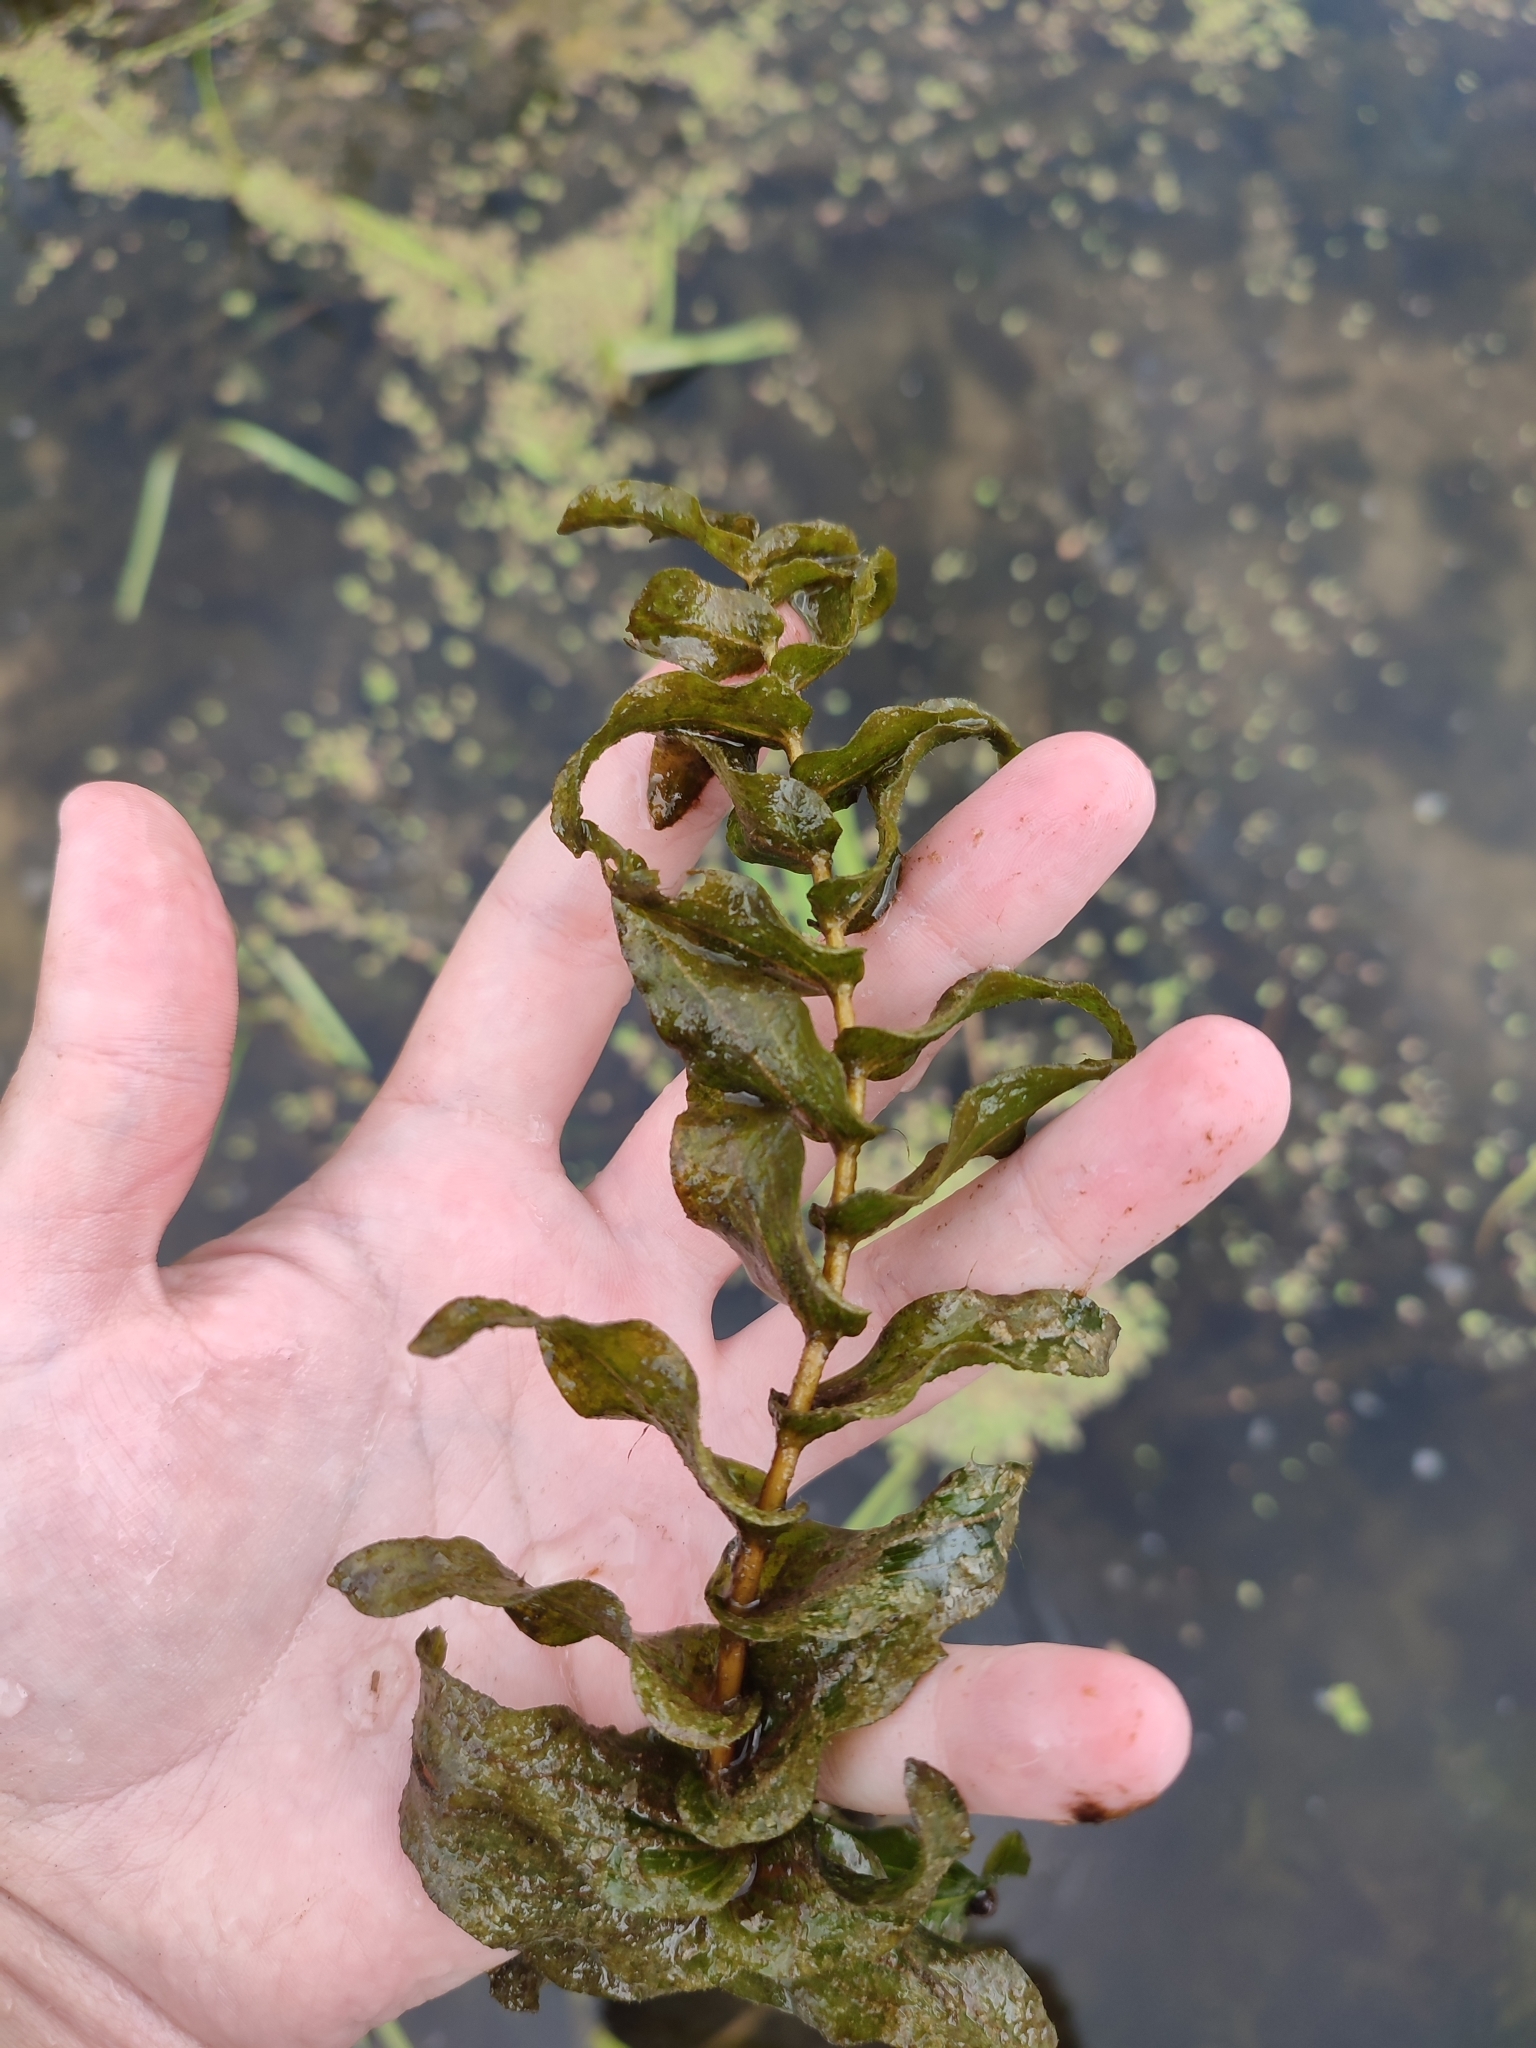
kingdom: Plantae
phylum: Tracheophyta
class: Liliopsida
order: Alismatales
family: Potamogetonaceae
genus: Potamogeton
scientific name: Potamogeton perfoliatus
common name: Perfoliate pondweed
